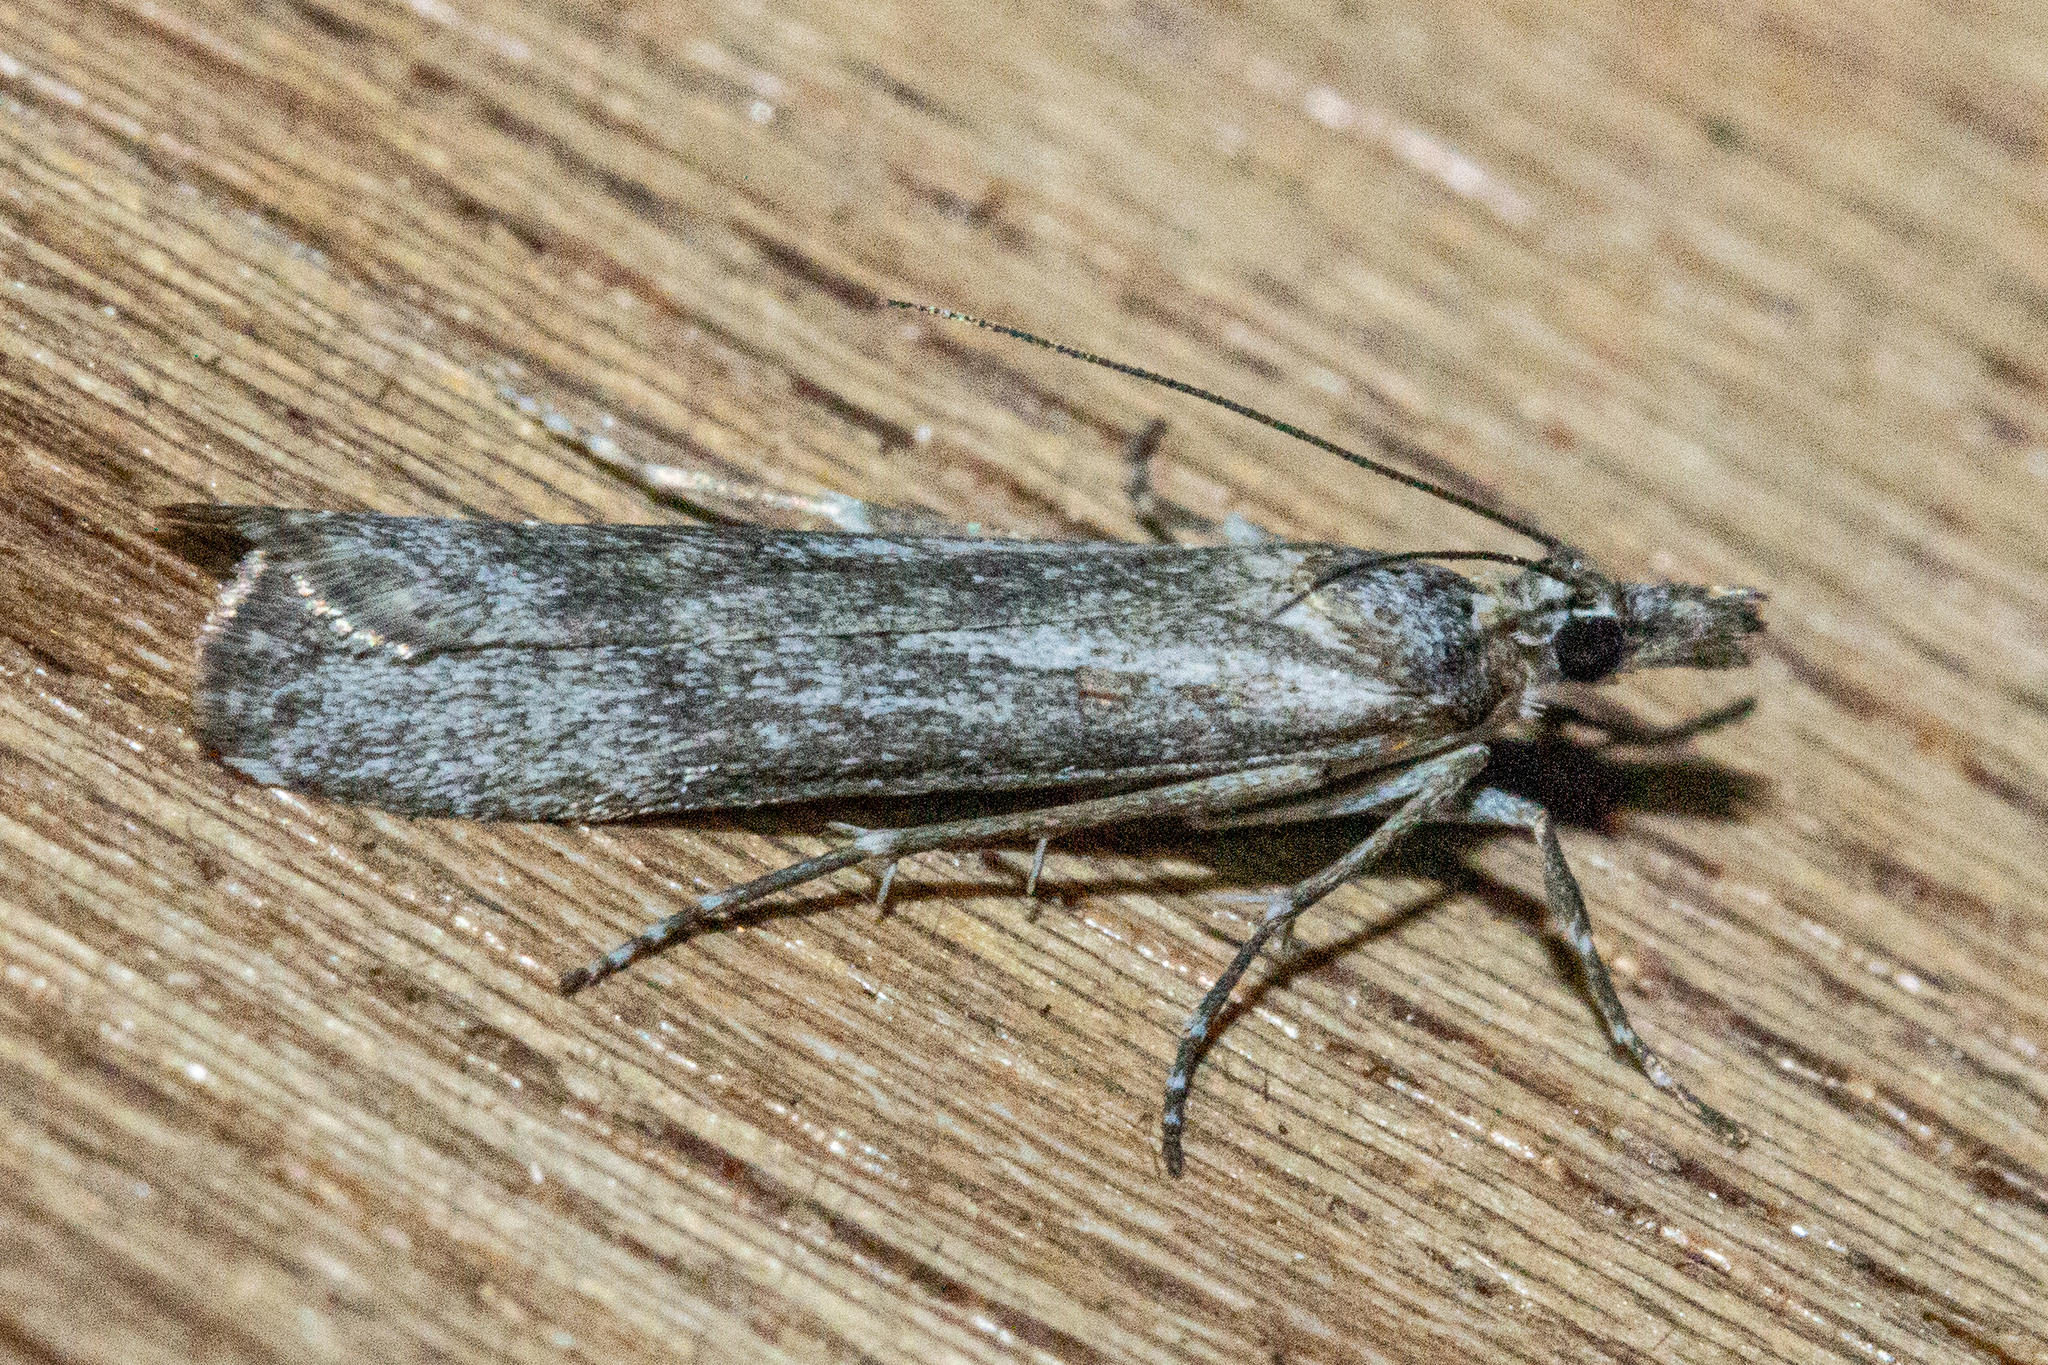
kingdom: Animalia
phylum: Arthropoda
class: Insecta
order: Lepidoptera
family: Crambidae
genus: Eudonia
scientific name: Eudonia leptalea
